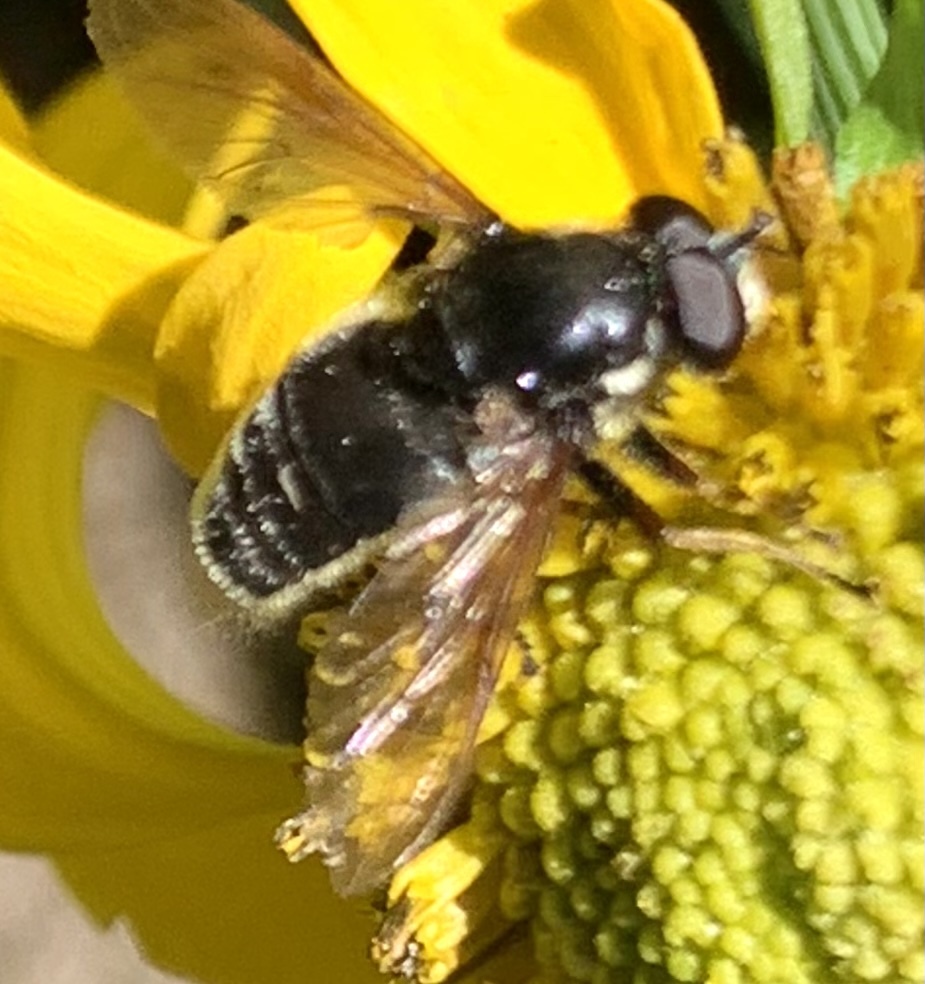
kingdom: Animalia
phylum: Arthropoda
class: Insecta
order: Diptera
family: Syrphidae
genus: Sericomyia
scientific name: Sericomyia militaris
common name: Narrow-banded pond fly
